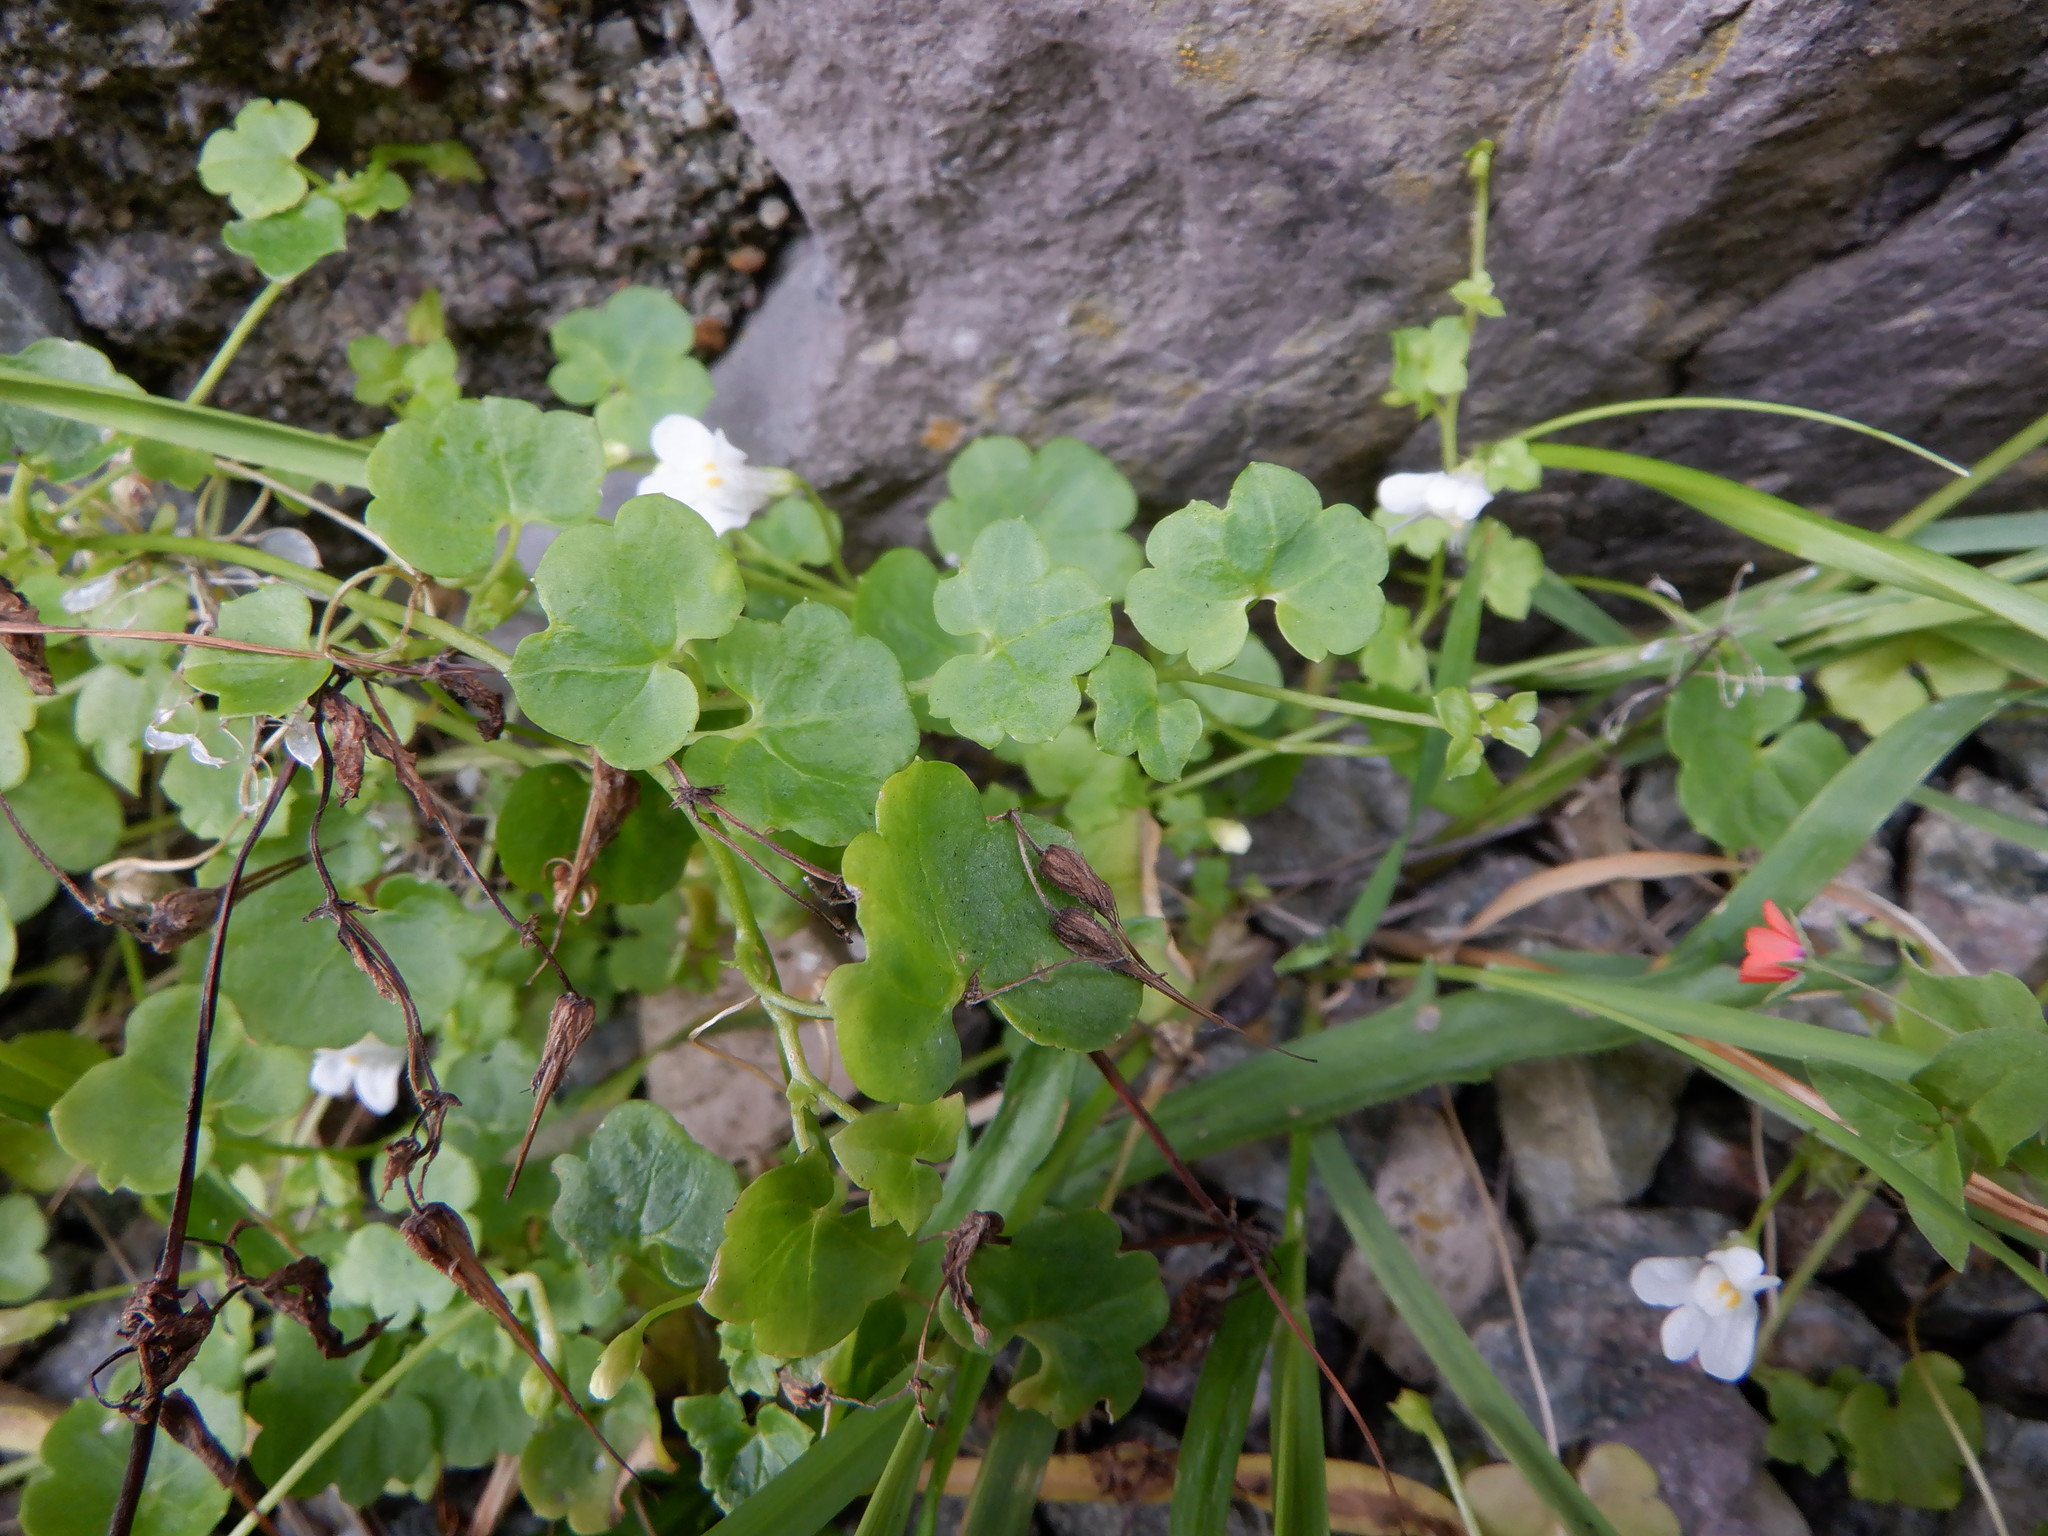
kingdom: Plantae
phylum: Tracheophyta
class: Magnoliopsida
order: Lamiales
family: Plantaginaceae
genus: Cymbalaria
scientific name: Cymbalaria muralis
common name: Ivy-leaved toadflax
